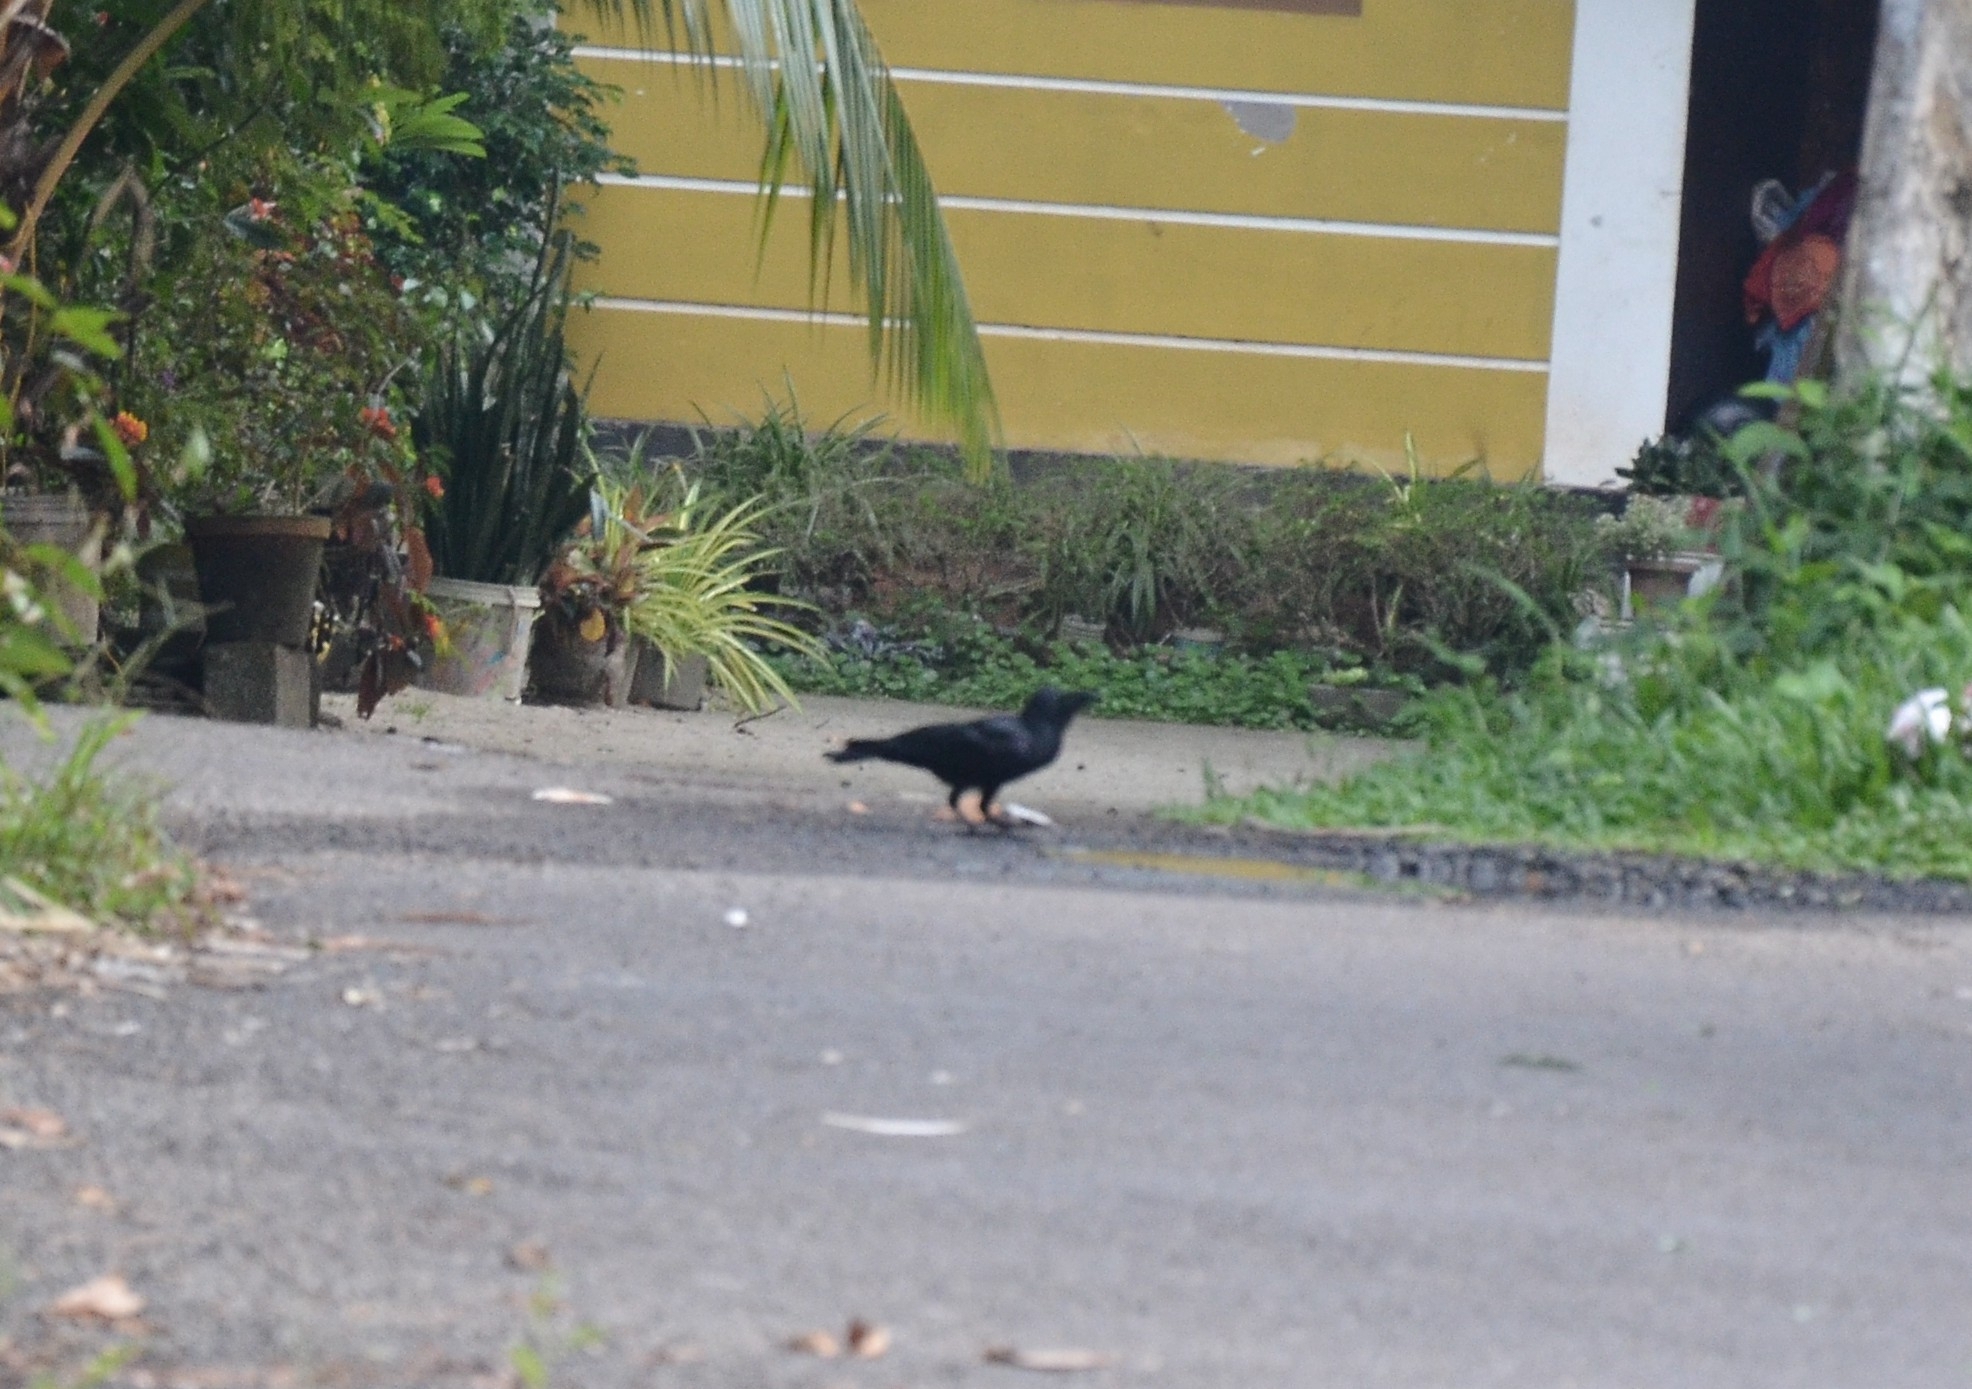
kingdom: Animalia
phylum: Chordata
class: Aves
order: Passeriformes
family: Corvidae
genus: Corvus
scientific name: Corvus macrorhynchos
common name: Large-billed crow
